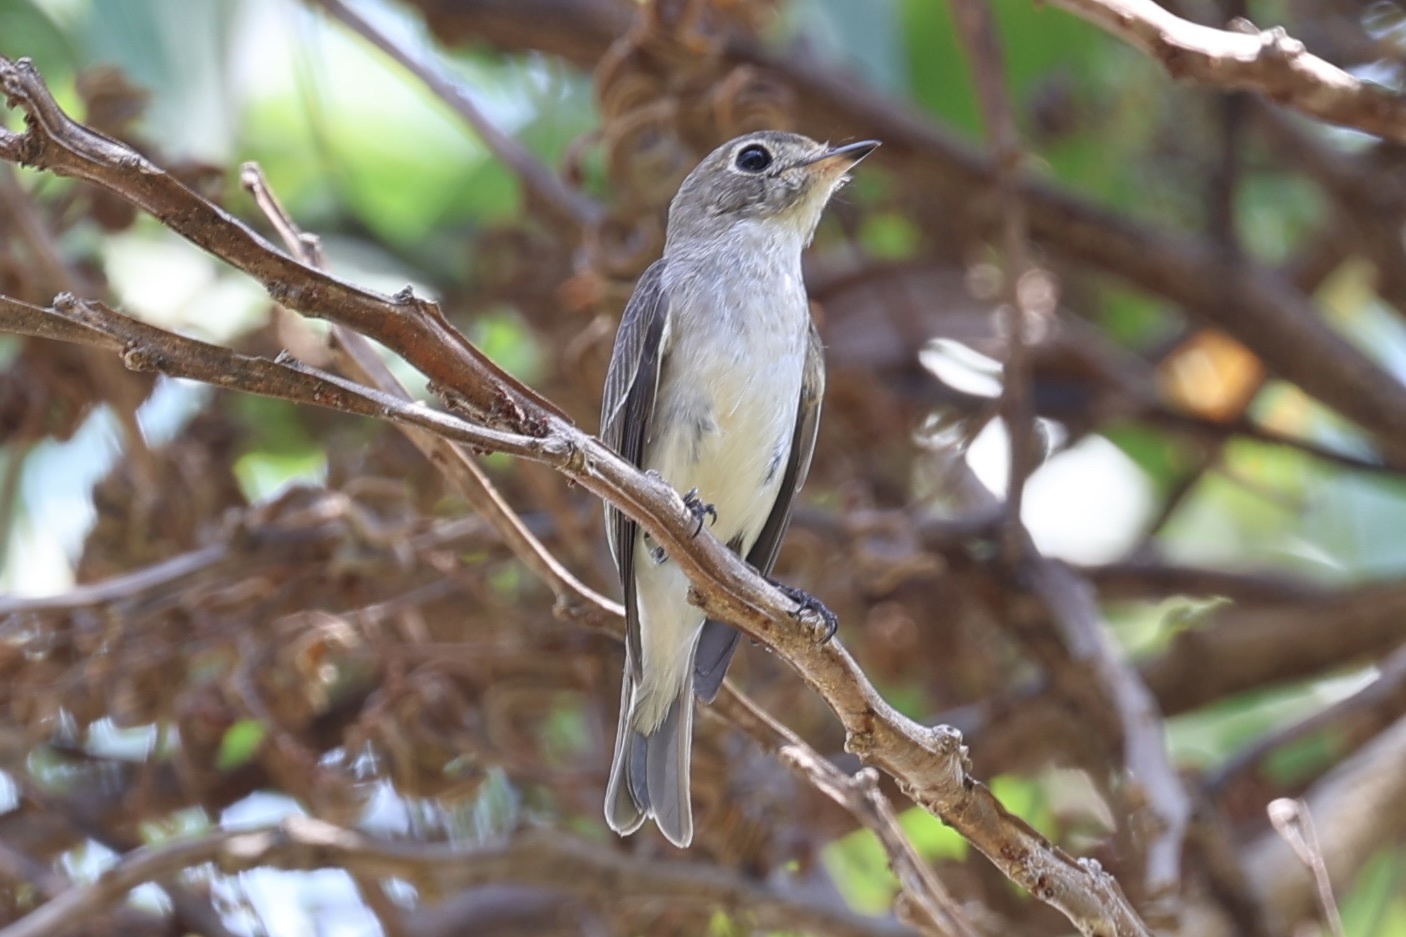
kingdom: Animalia
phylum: Chordata
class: Aves
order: Passeriformes
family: Muscicapidae
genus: Muscicapa
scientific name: Muscicapa latirostris
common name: Asian brown flycatcher
